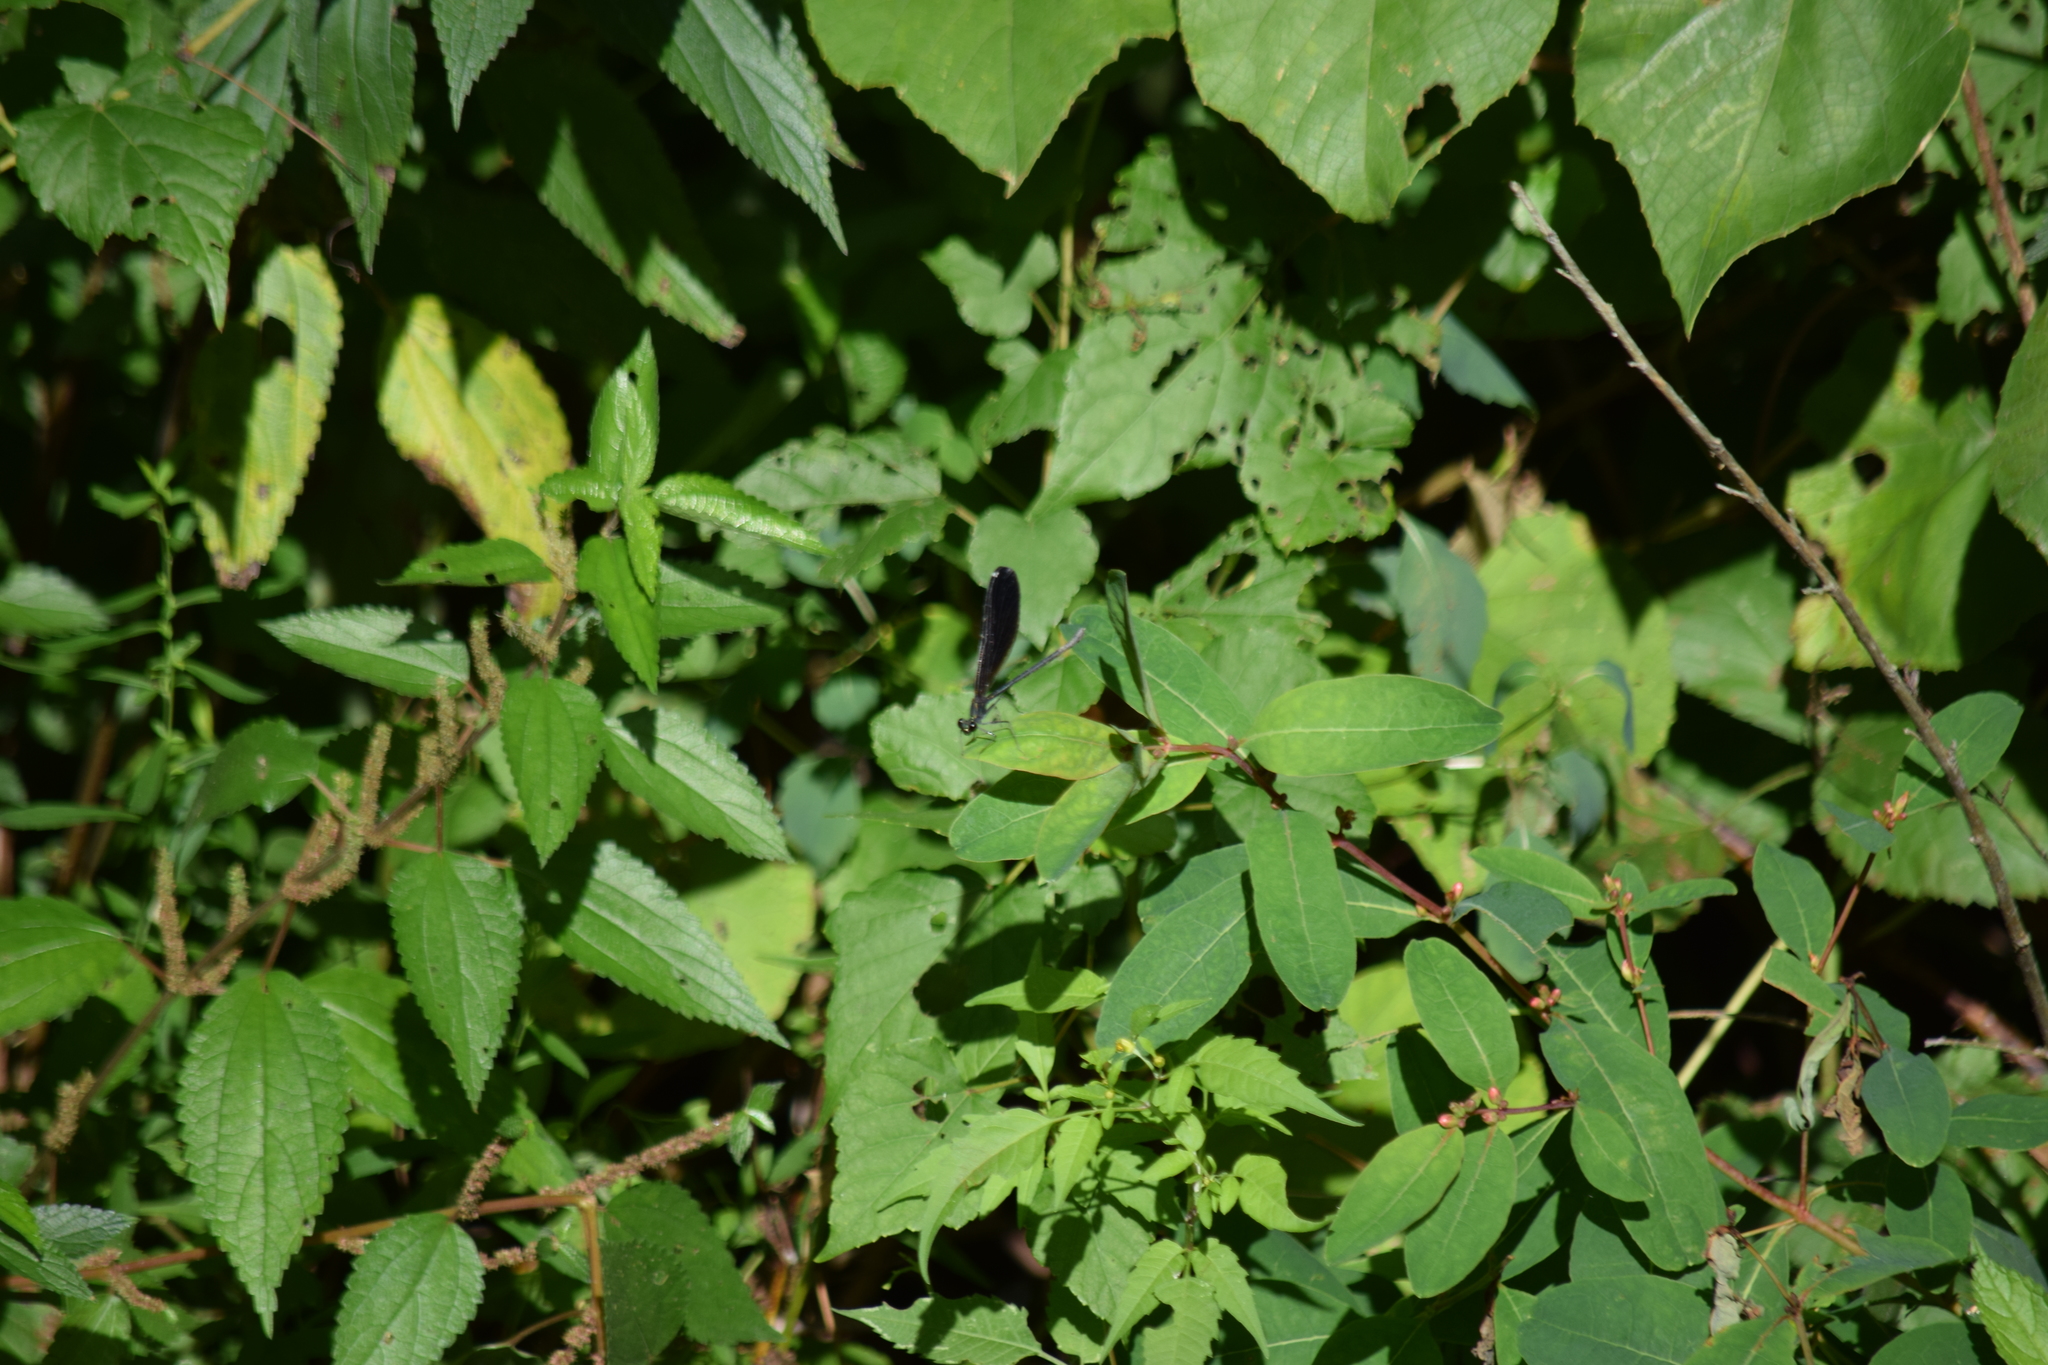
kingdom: Animalia
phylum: Arthropoda
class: Insecta
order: Odonata
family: Calopterygidae
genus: Calopteryx
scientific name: Calopteryx maculata
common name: Ebony jewelwing
